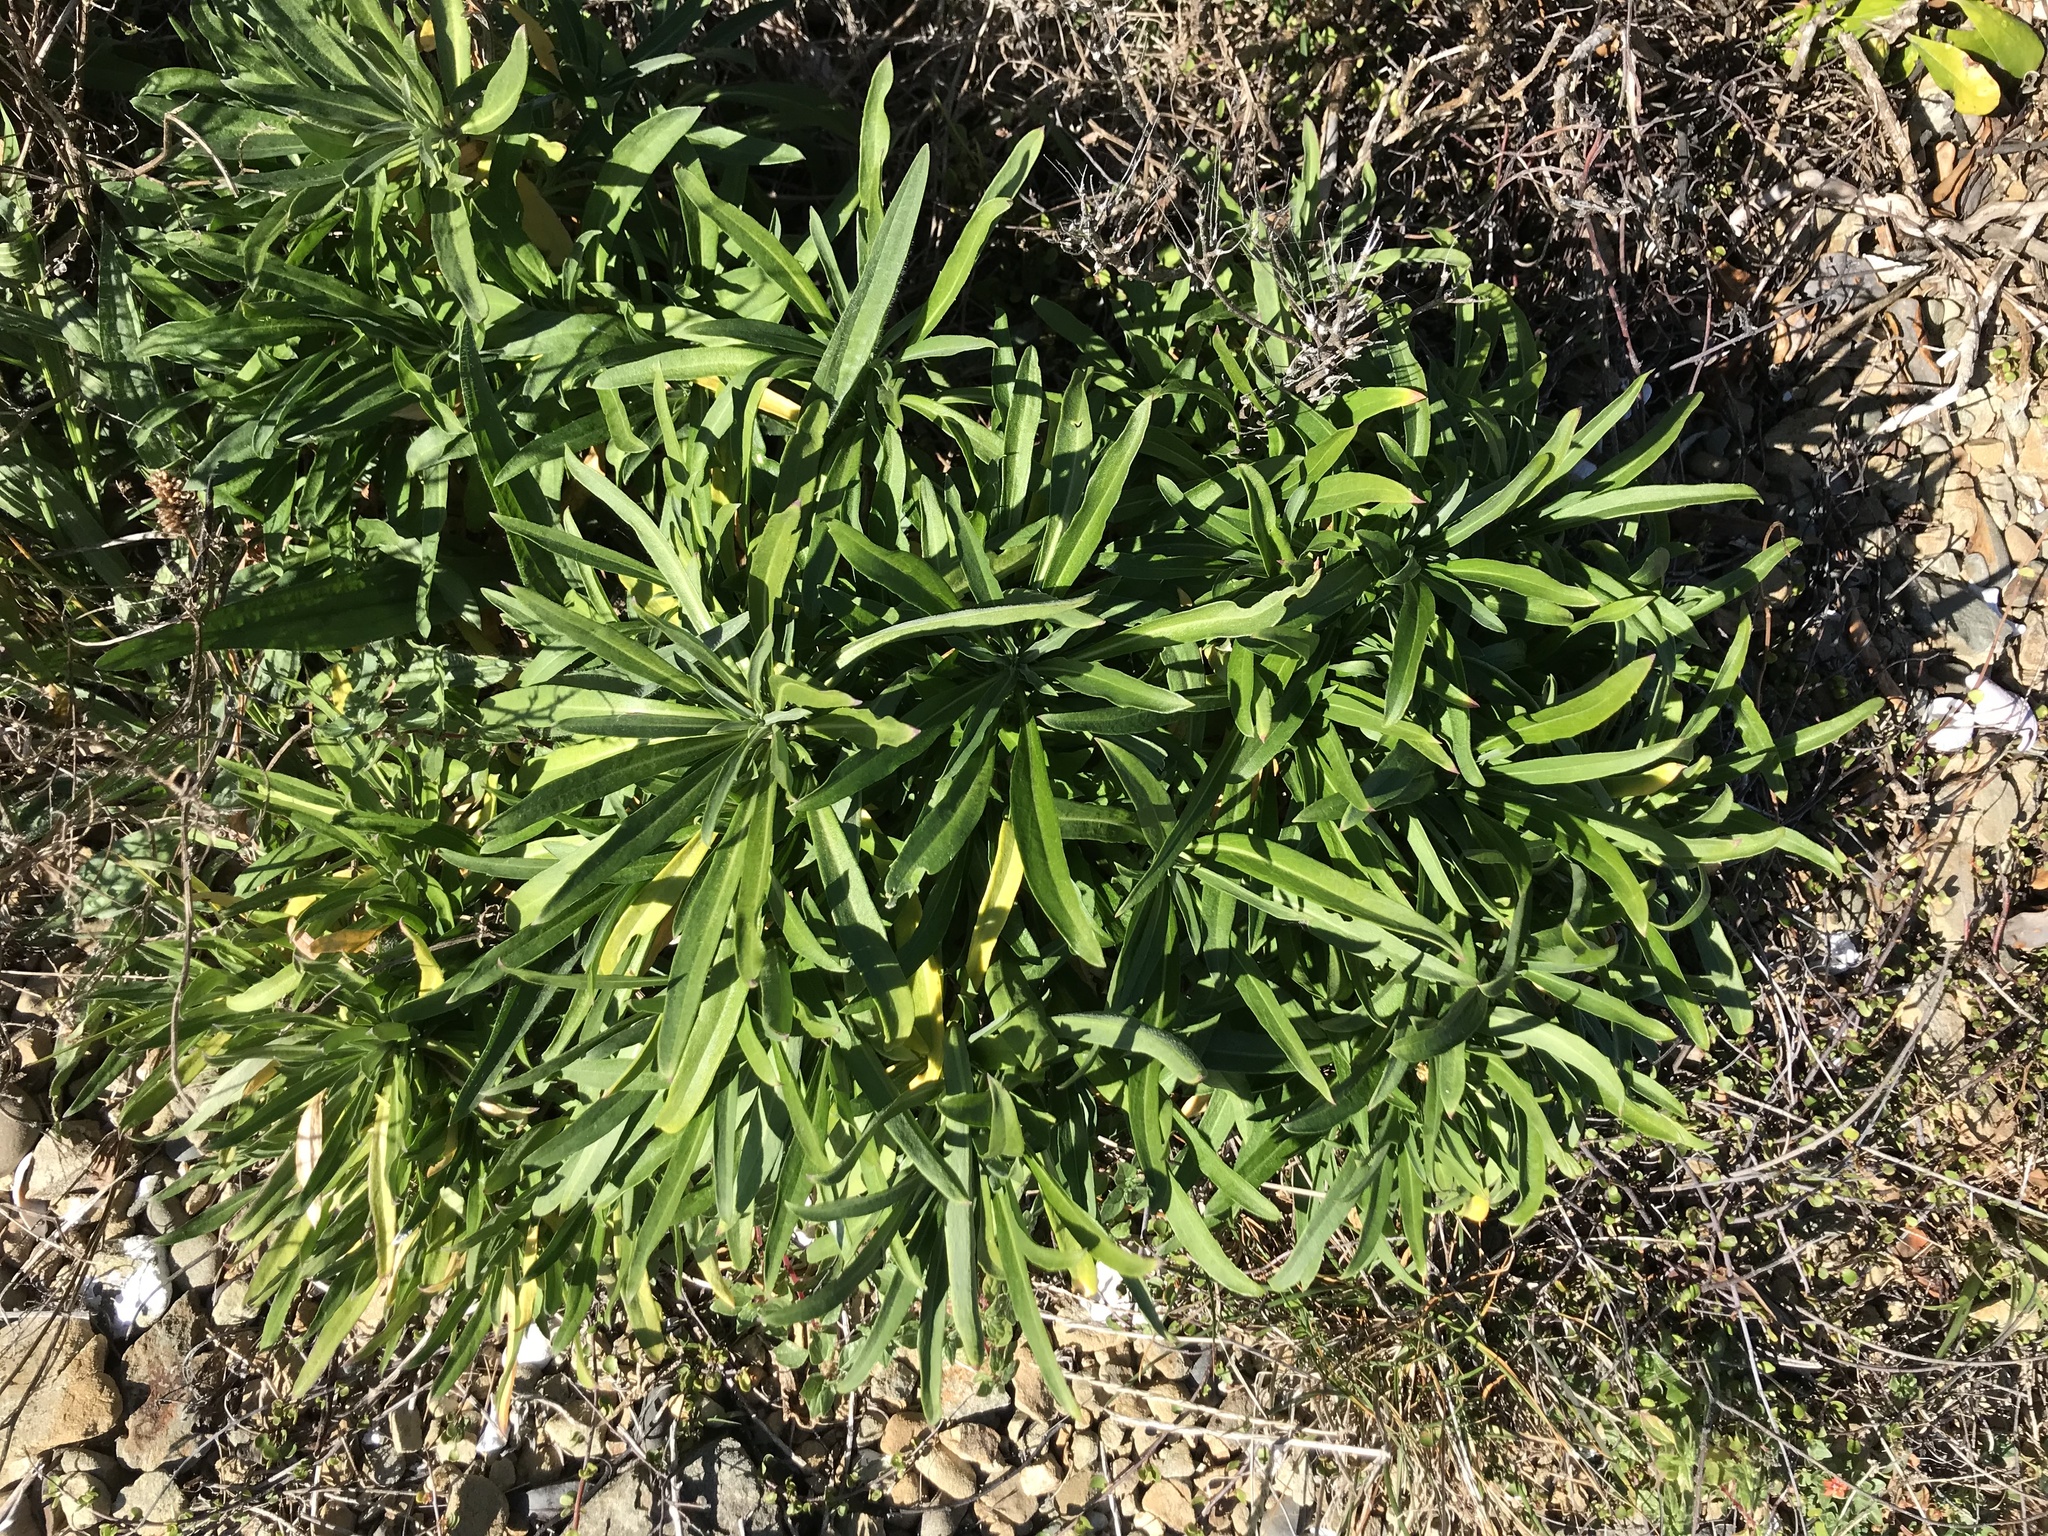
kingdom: Plantae
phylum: Tracheophyta
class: Magnoliopsida
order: Brassicales
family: Brassicaceae
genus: Erysimum
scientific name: Erysimum cheiri
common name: Wallflower
